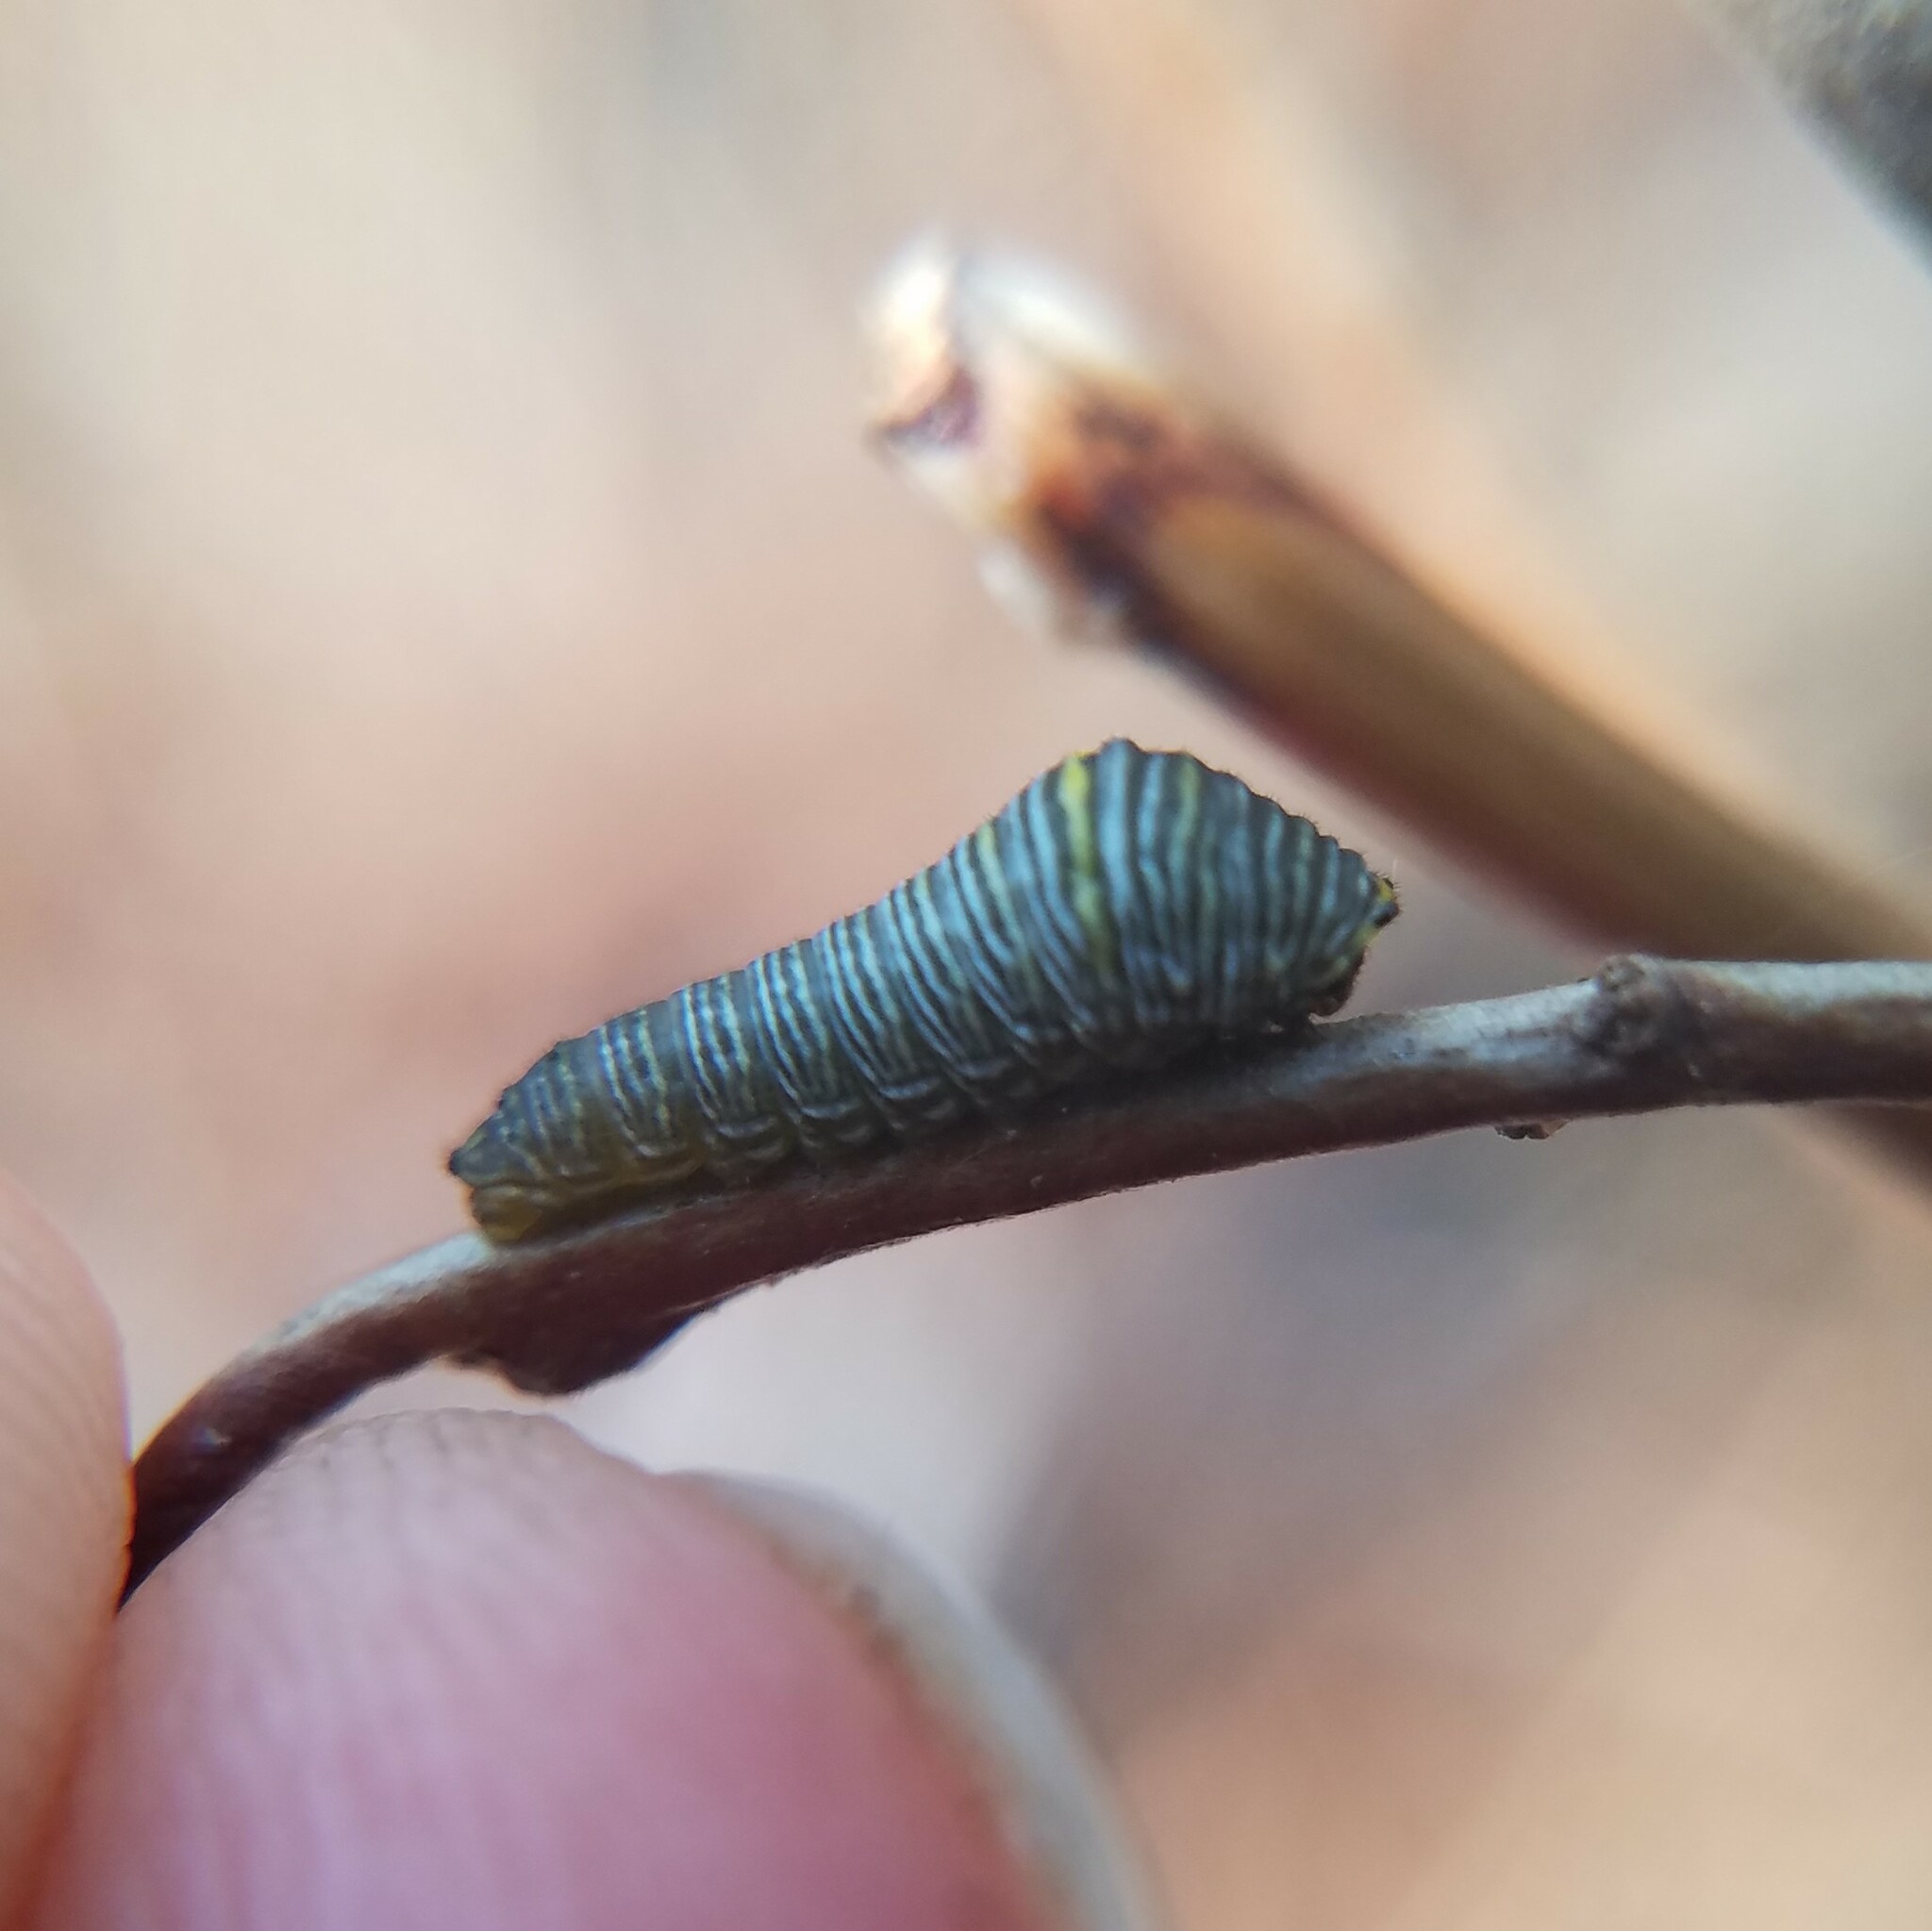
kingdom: Animalia
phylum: Arthropoda
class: Insecta
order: Lepidoptera
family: Papilionidae
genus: Protographium
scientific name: Protographium marcellus
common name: Zebra swallowtail
